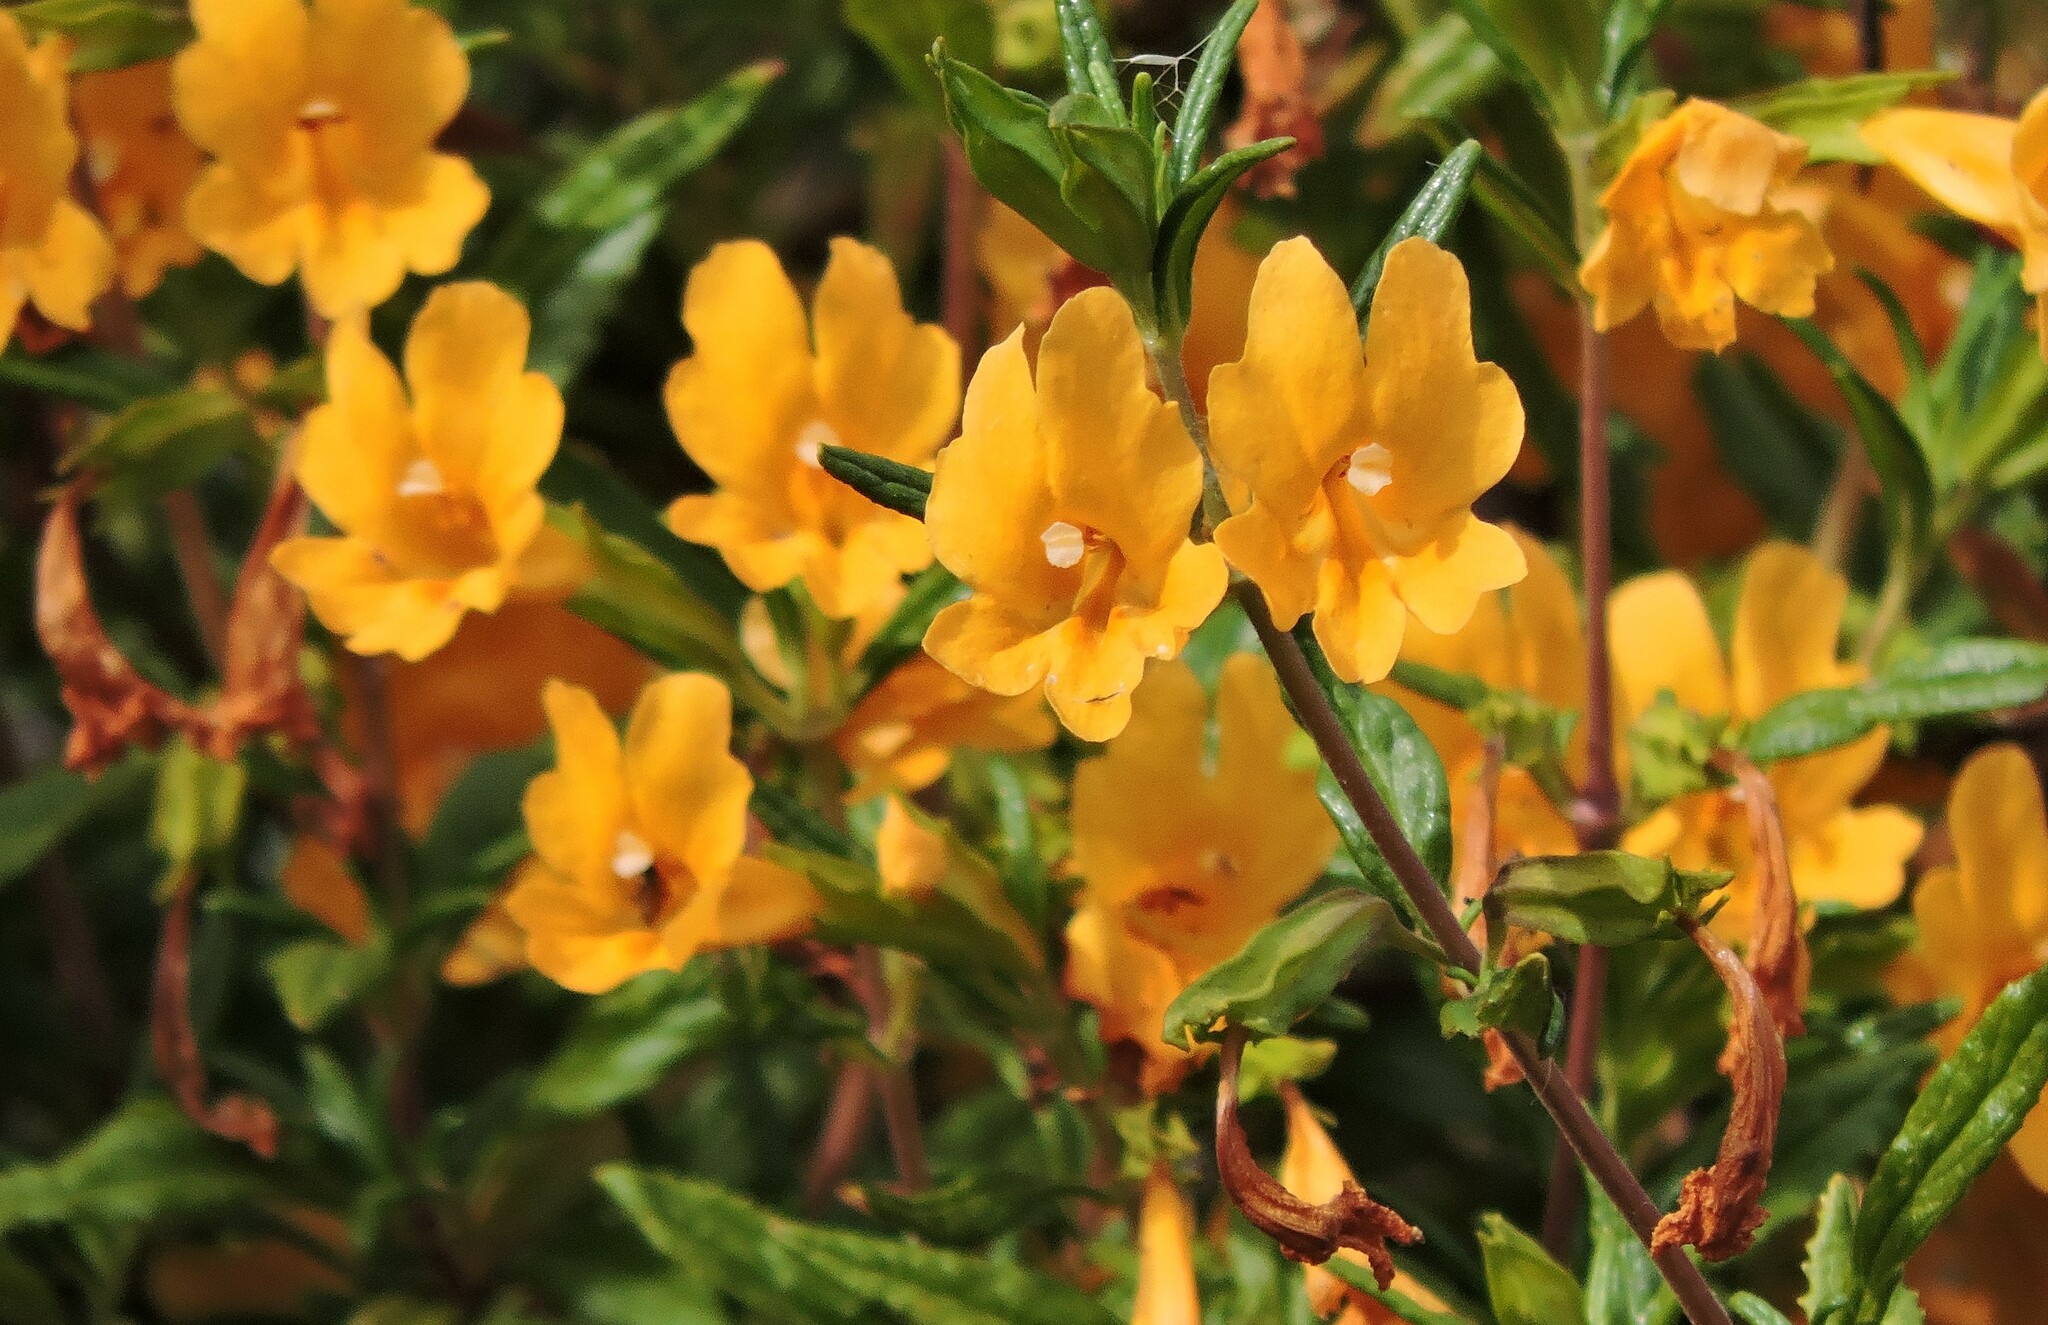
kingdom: Plantae
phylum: Tracheophyta
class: Magnoliopsida
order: Lamiales
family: Phrymaceae
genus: Diplacus
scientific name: Diplacus aurantiacus
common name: Bush monkey-flower
